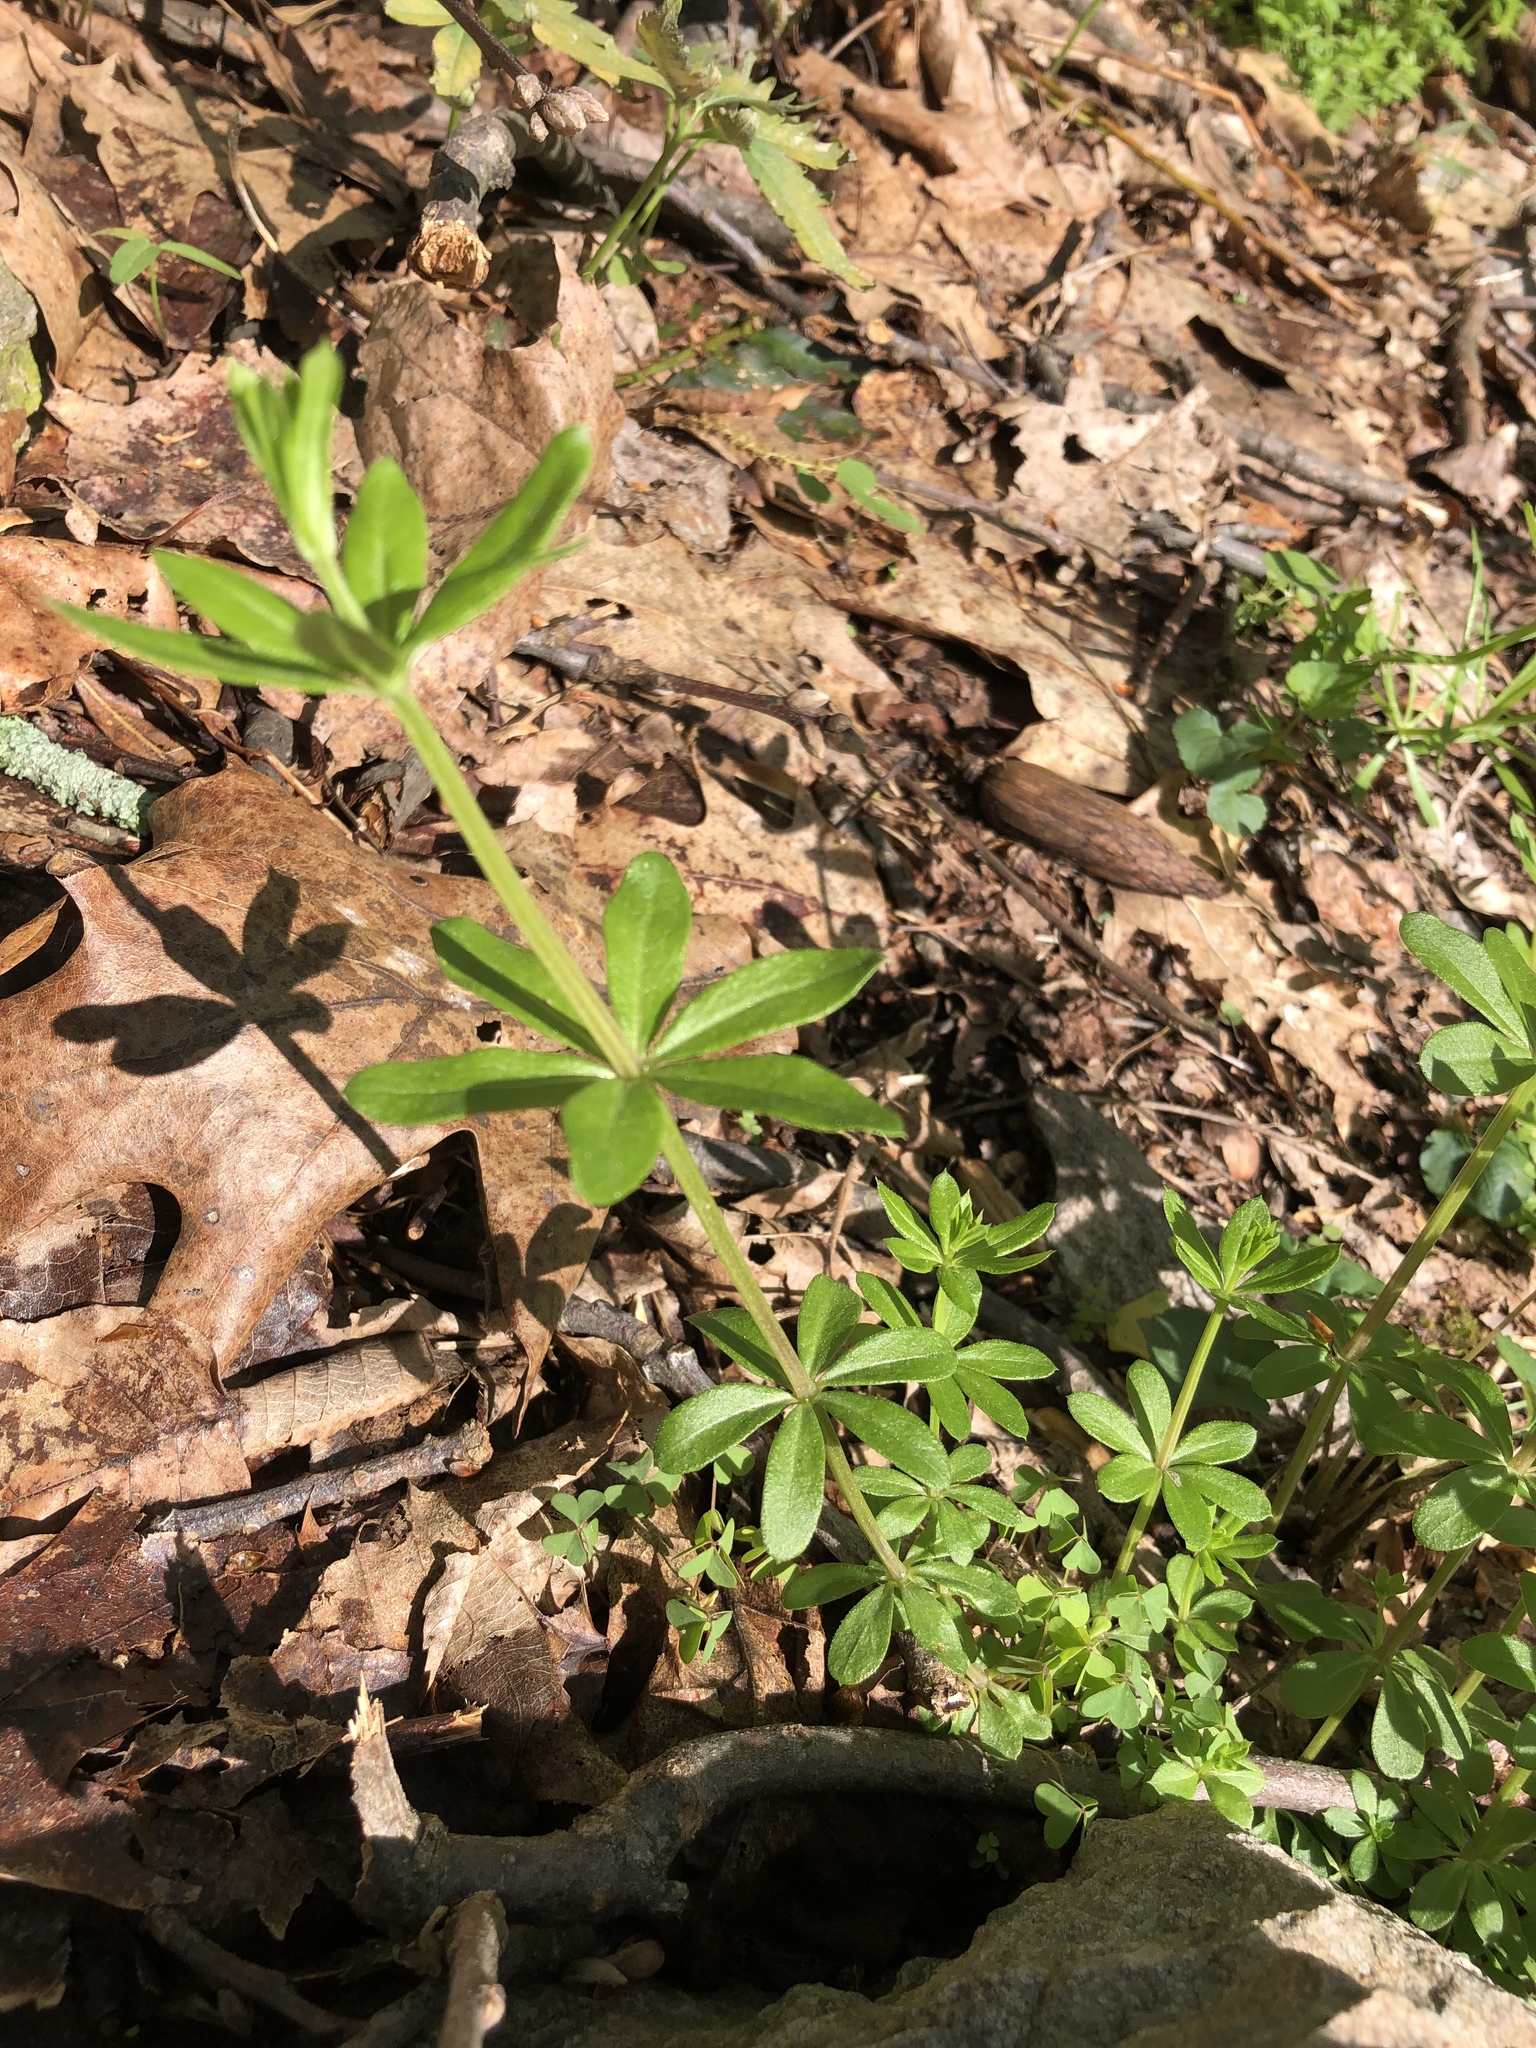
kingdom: Plantae
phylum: Tracheophyta
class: Magnoliopsida
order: Gentianales
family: Rubiaceae
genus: Galium
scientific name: Galium triflorum
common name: Fragrant bedstraw
